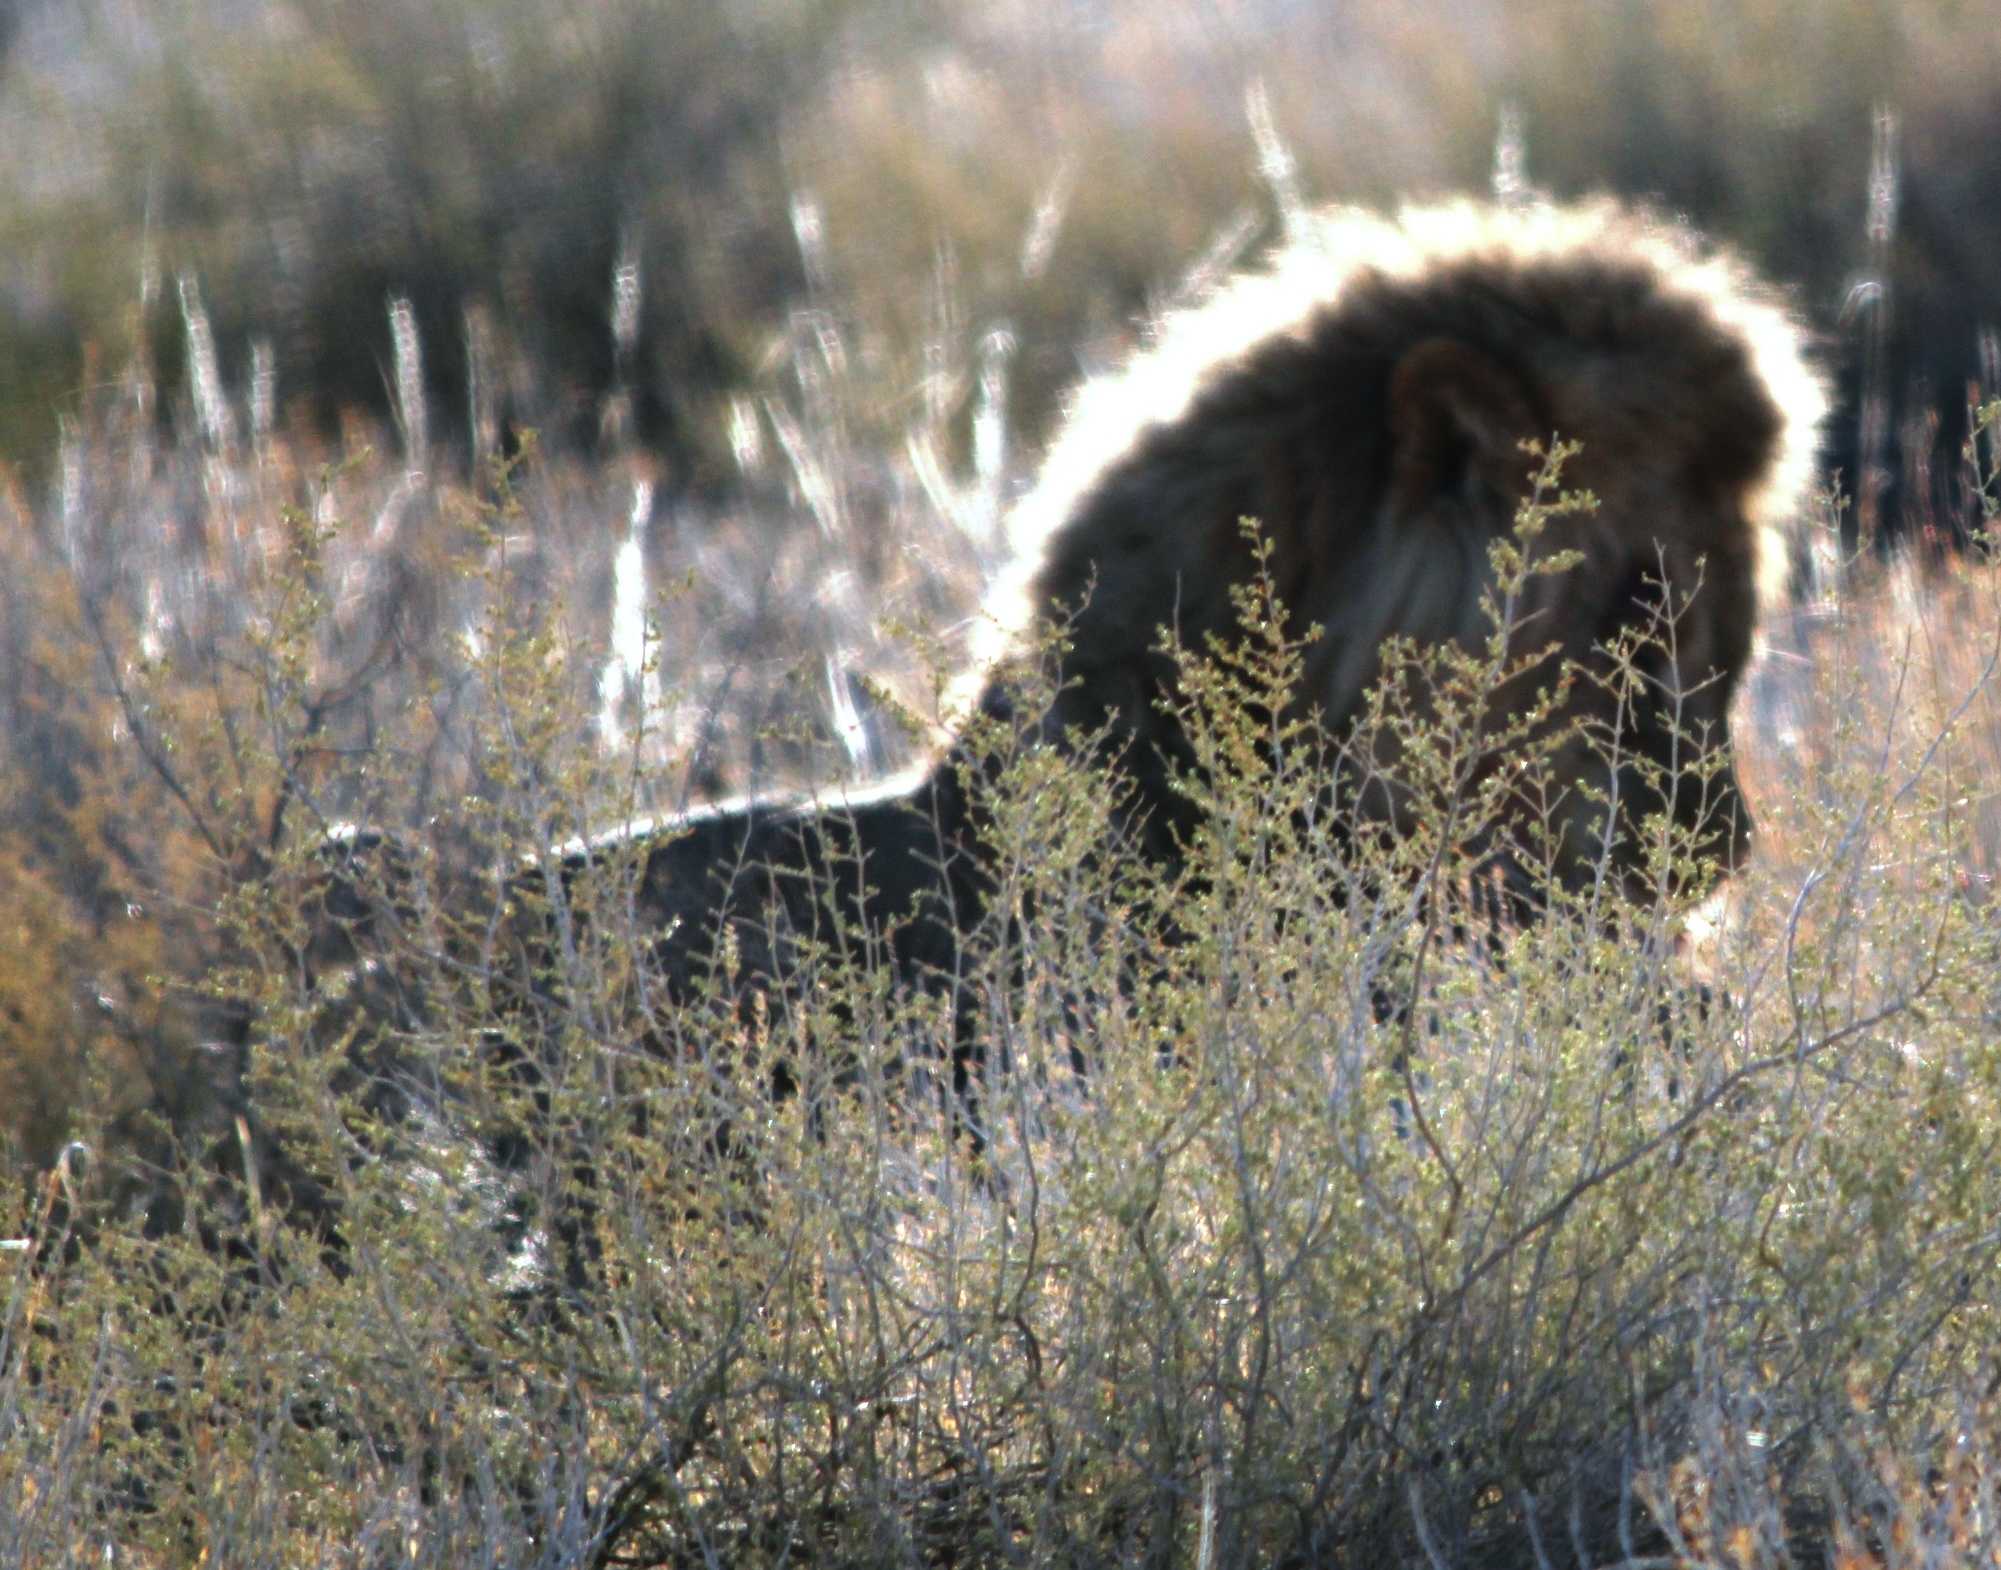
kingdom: Animalia
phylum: Chordata
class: Mammalia
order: Carnivora
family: Felidae
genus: Panthera
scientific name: Panthera leo
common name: Lion
